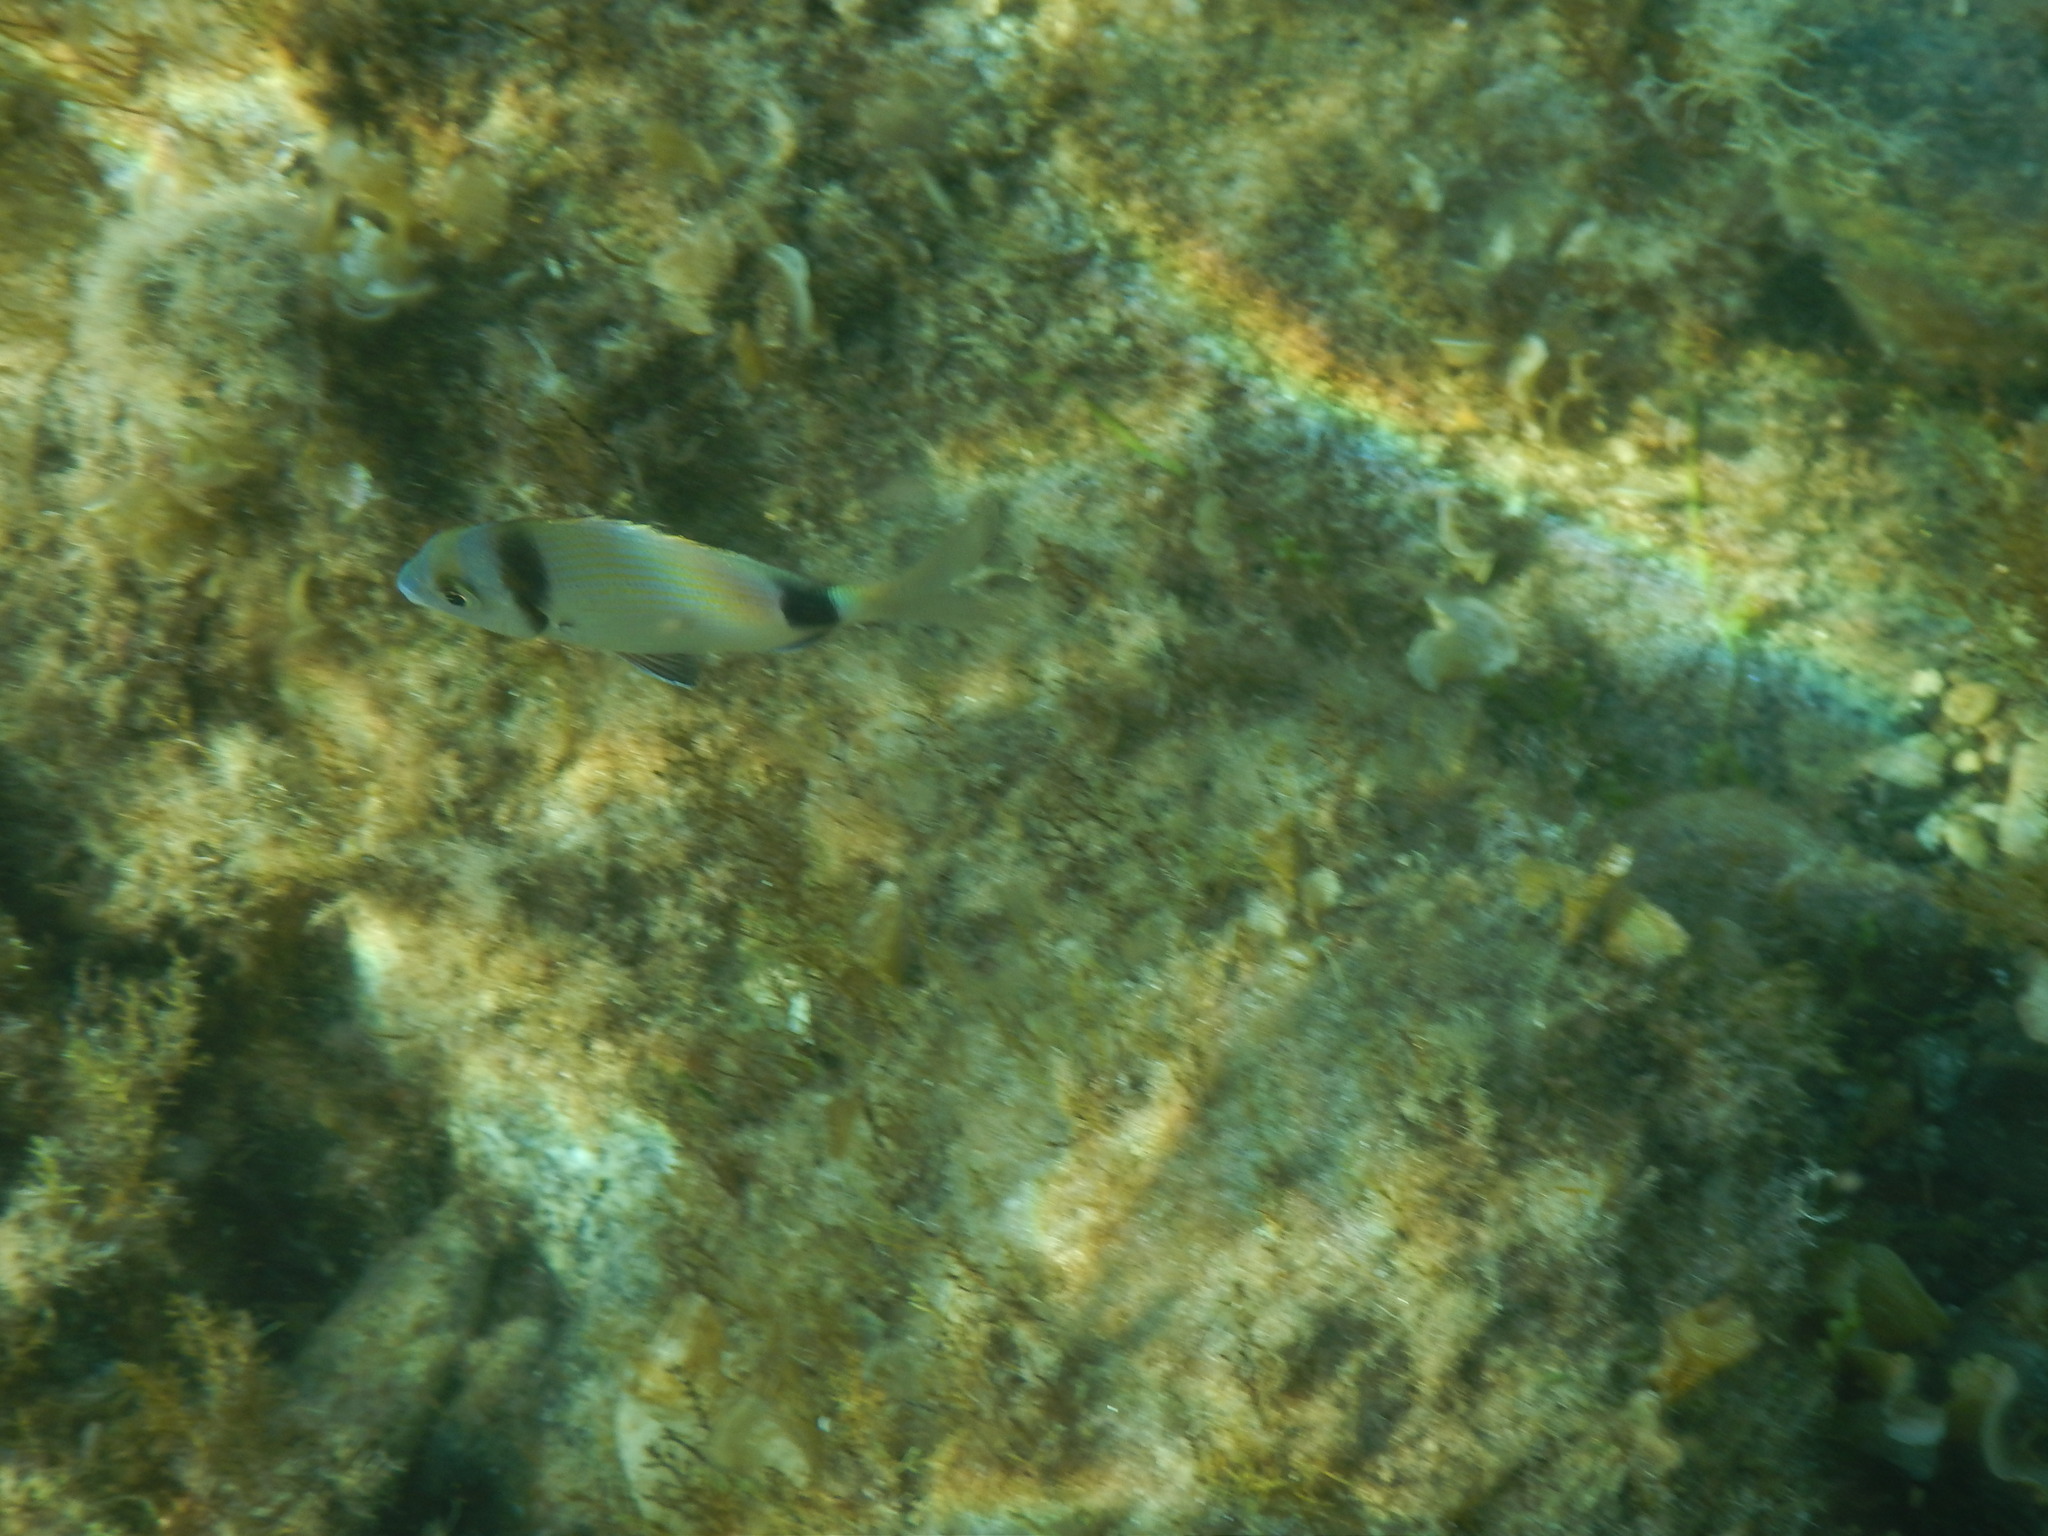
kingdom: Animalia
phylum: Chordata
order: Perciformes
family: Sparidae
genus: Diplodus
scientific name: Diplodus vulgaris
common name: Common two-banded seabream
